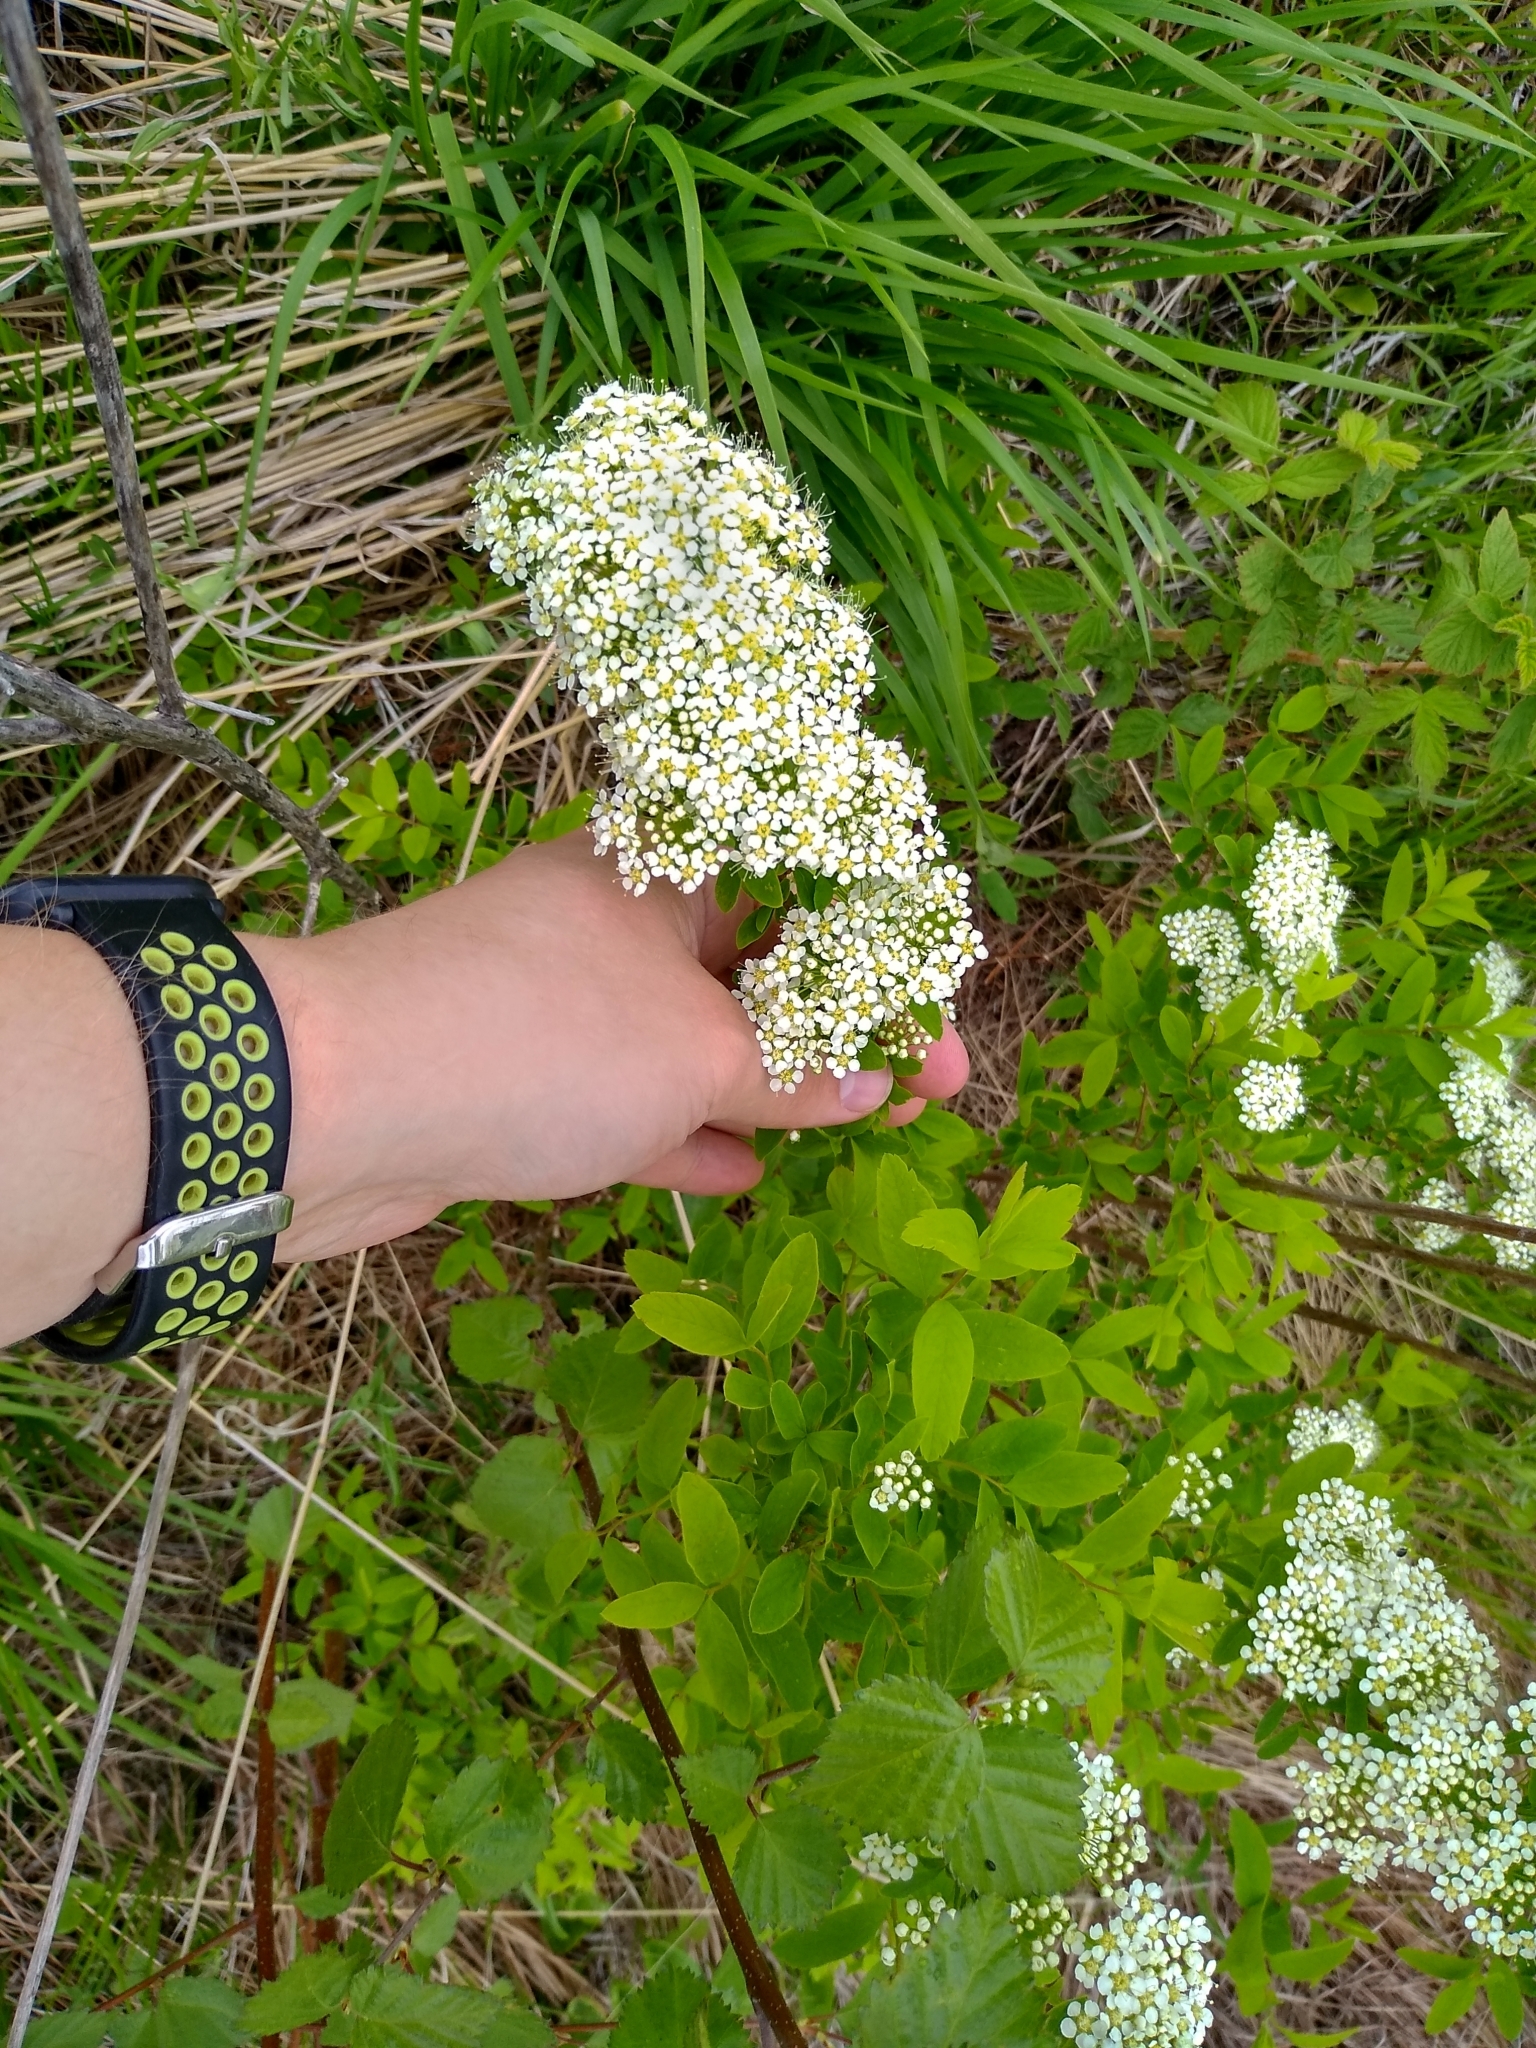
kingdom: Plantae
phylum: Tracheophyta
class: Magnoliopsida
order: Rosales
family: Rosaceae
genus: Spiraea
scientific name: Spiraea media
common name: Russian spiraea
